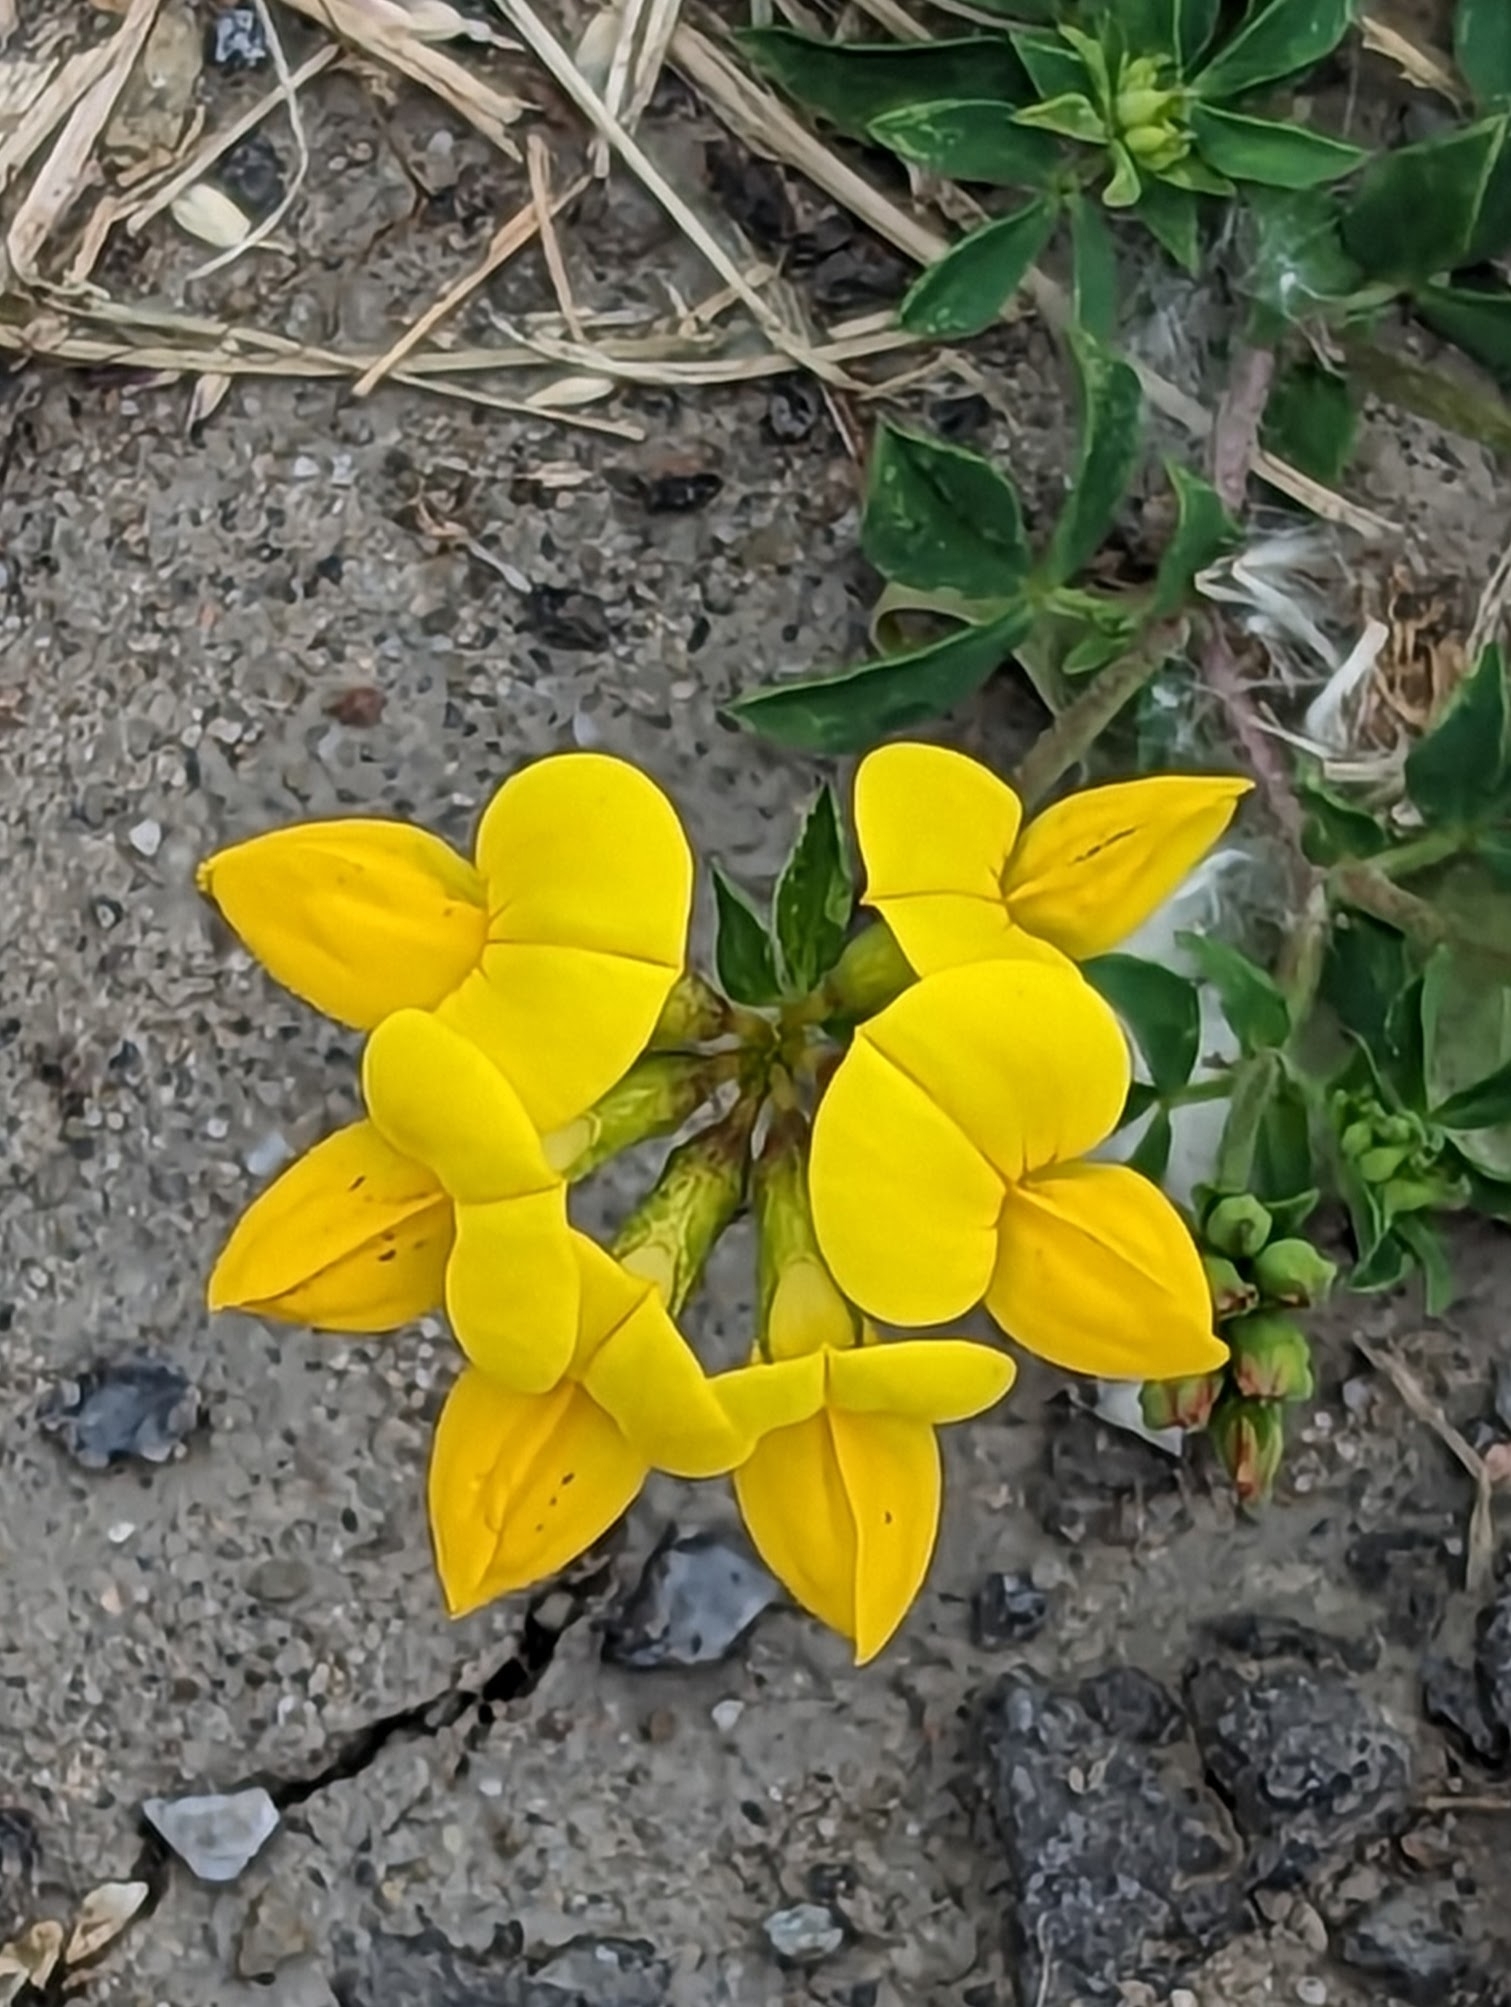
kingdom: Plantae
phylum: Tracheophyta
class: Magnoliopsida
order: Fabales
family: Fabaceae
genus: Lotus
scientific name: Lotus corniculatus
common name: Common bird's-foot-trefoil
